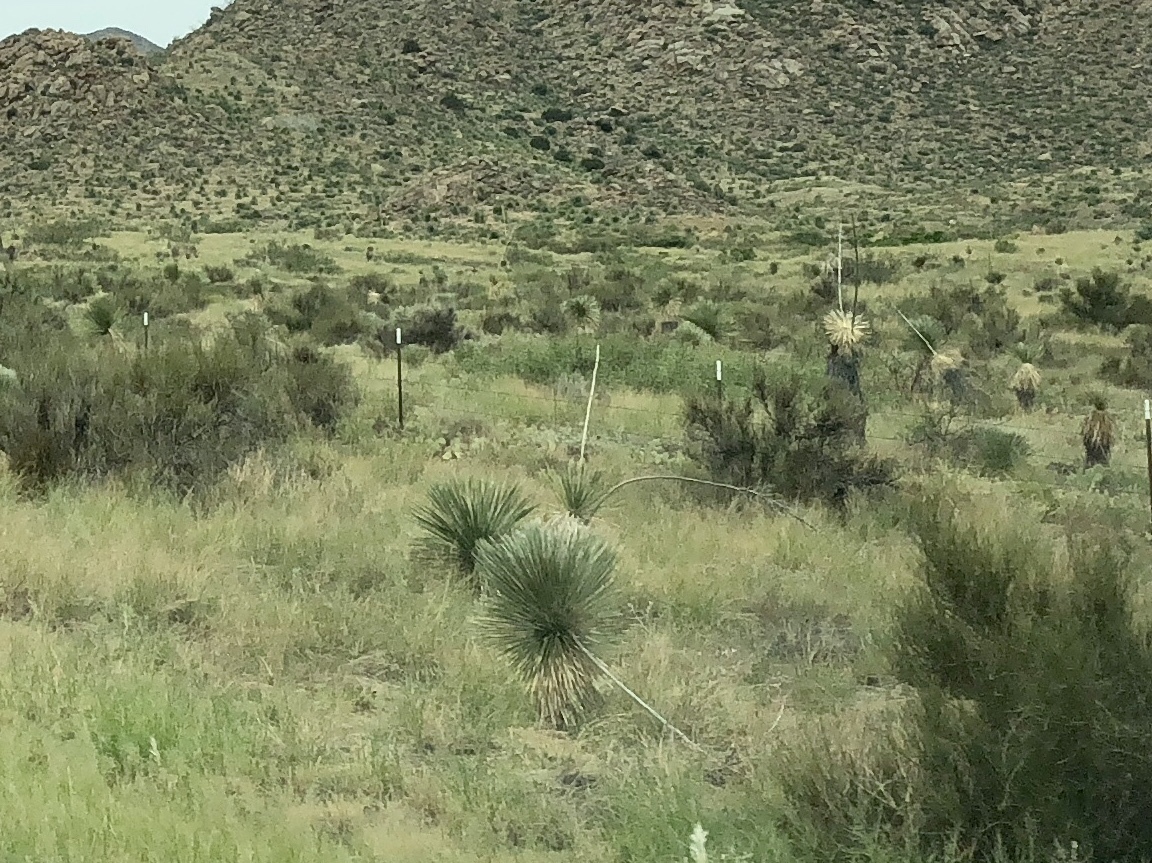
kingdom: Plantae
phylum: Tracheophyta
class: Liliopsida
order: Asparagales
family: Asparagaceae
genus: Yucca
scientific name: Yucca elata
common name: Palmella
